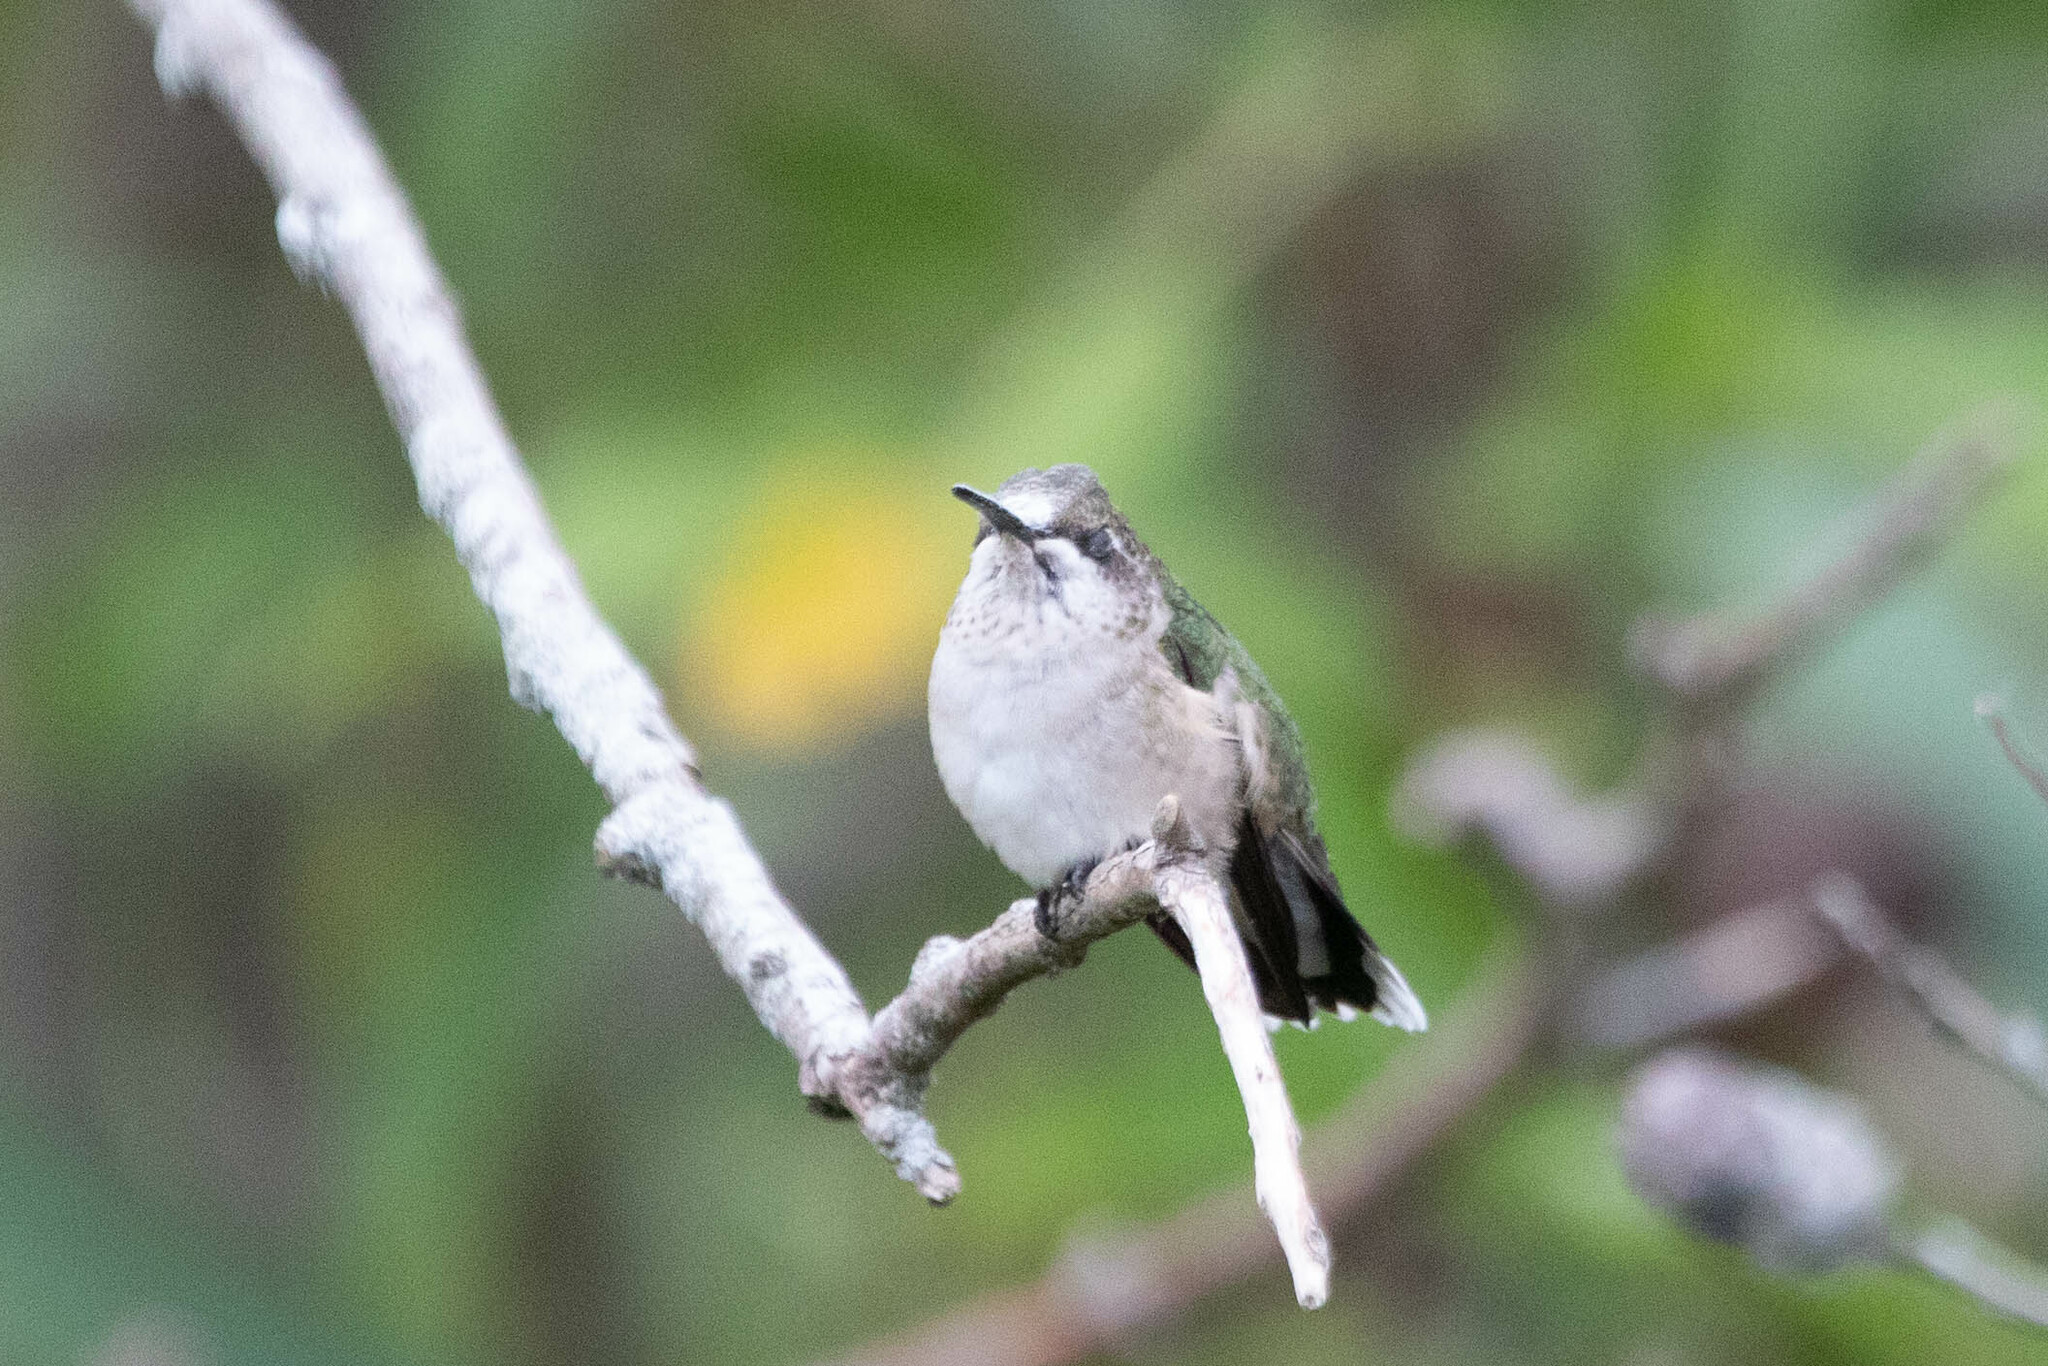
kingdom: Animalia
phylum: Chordata
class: Aves
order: Apodiformes
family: Trochilidae
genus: Archilochus
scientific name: Archilochus colubris
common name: Ruby-throated hummingbird
